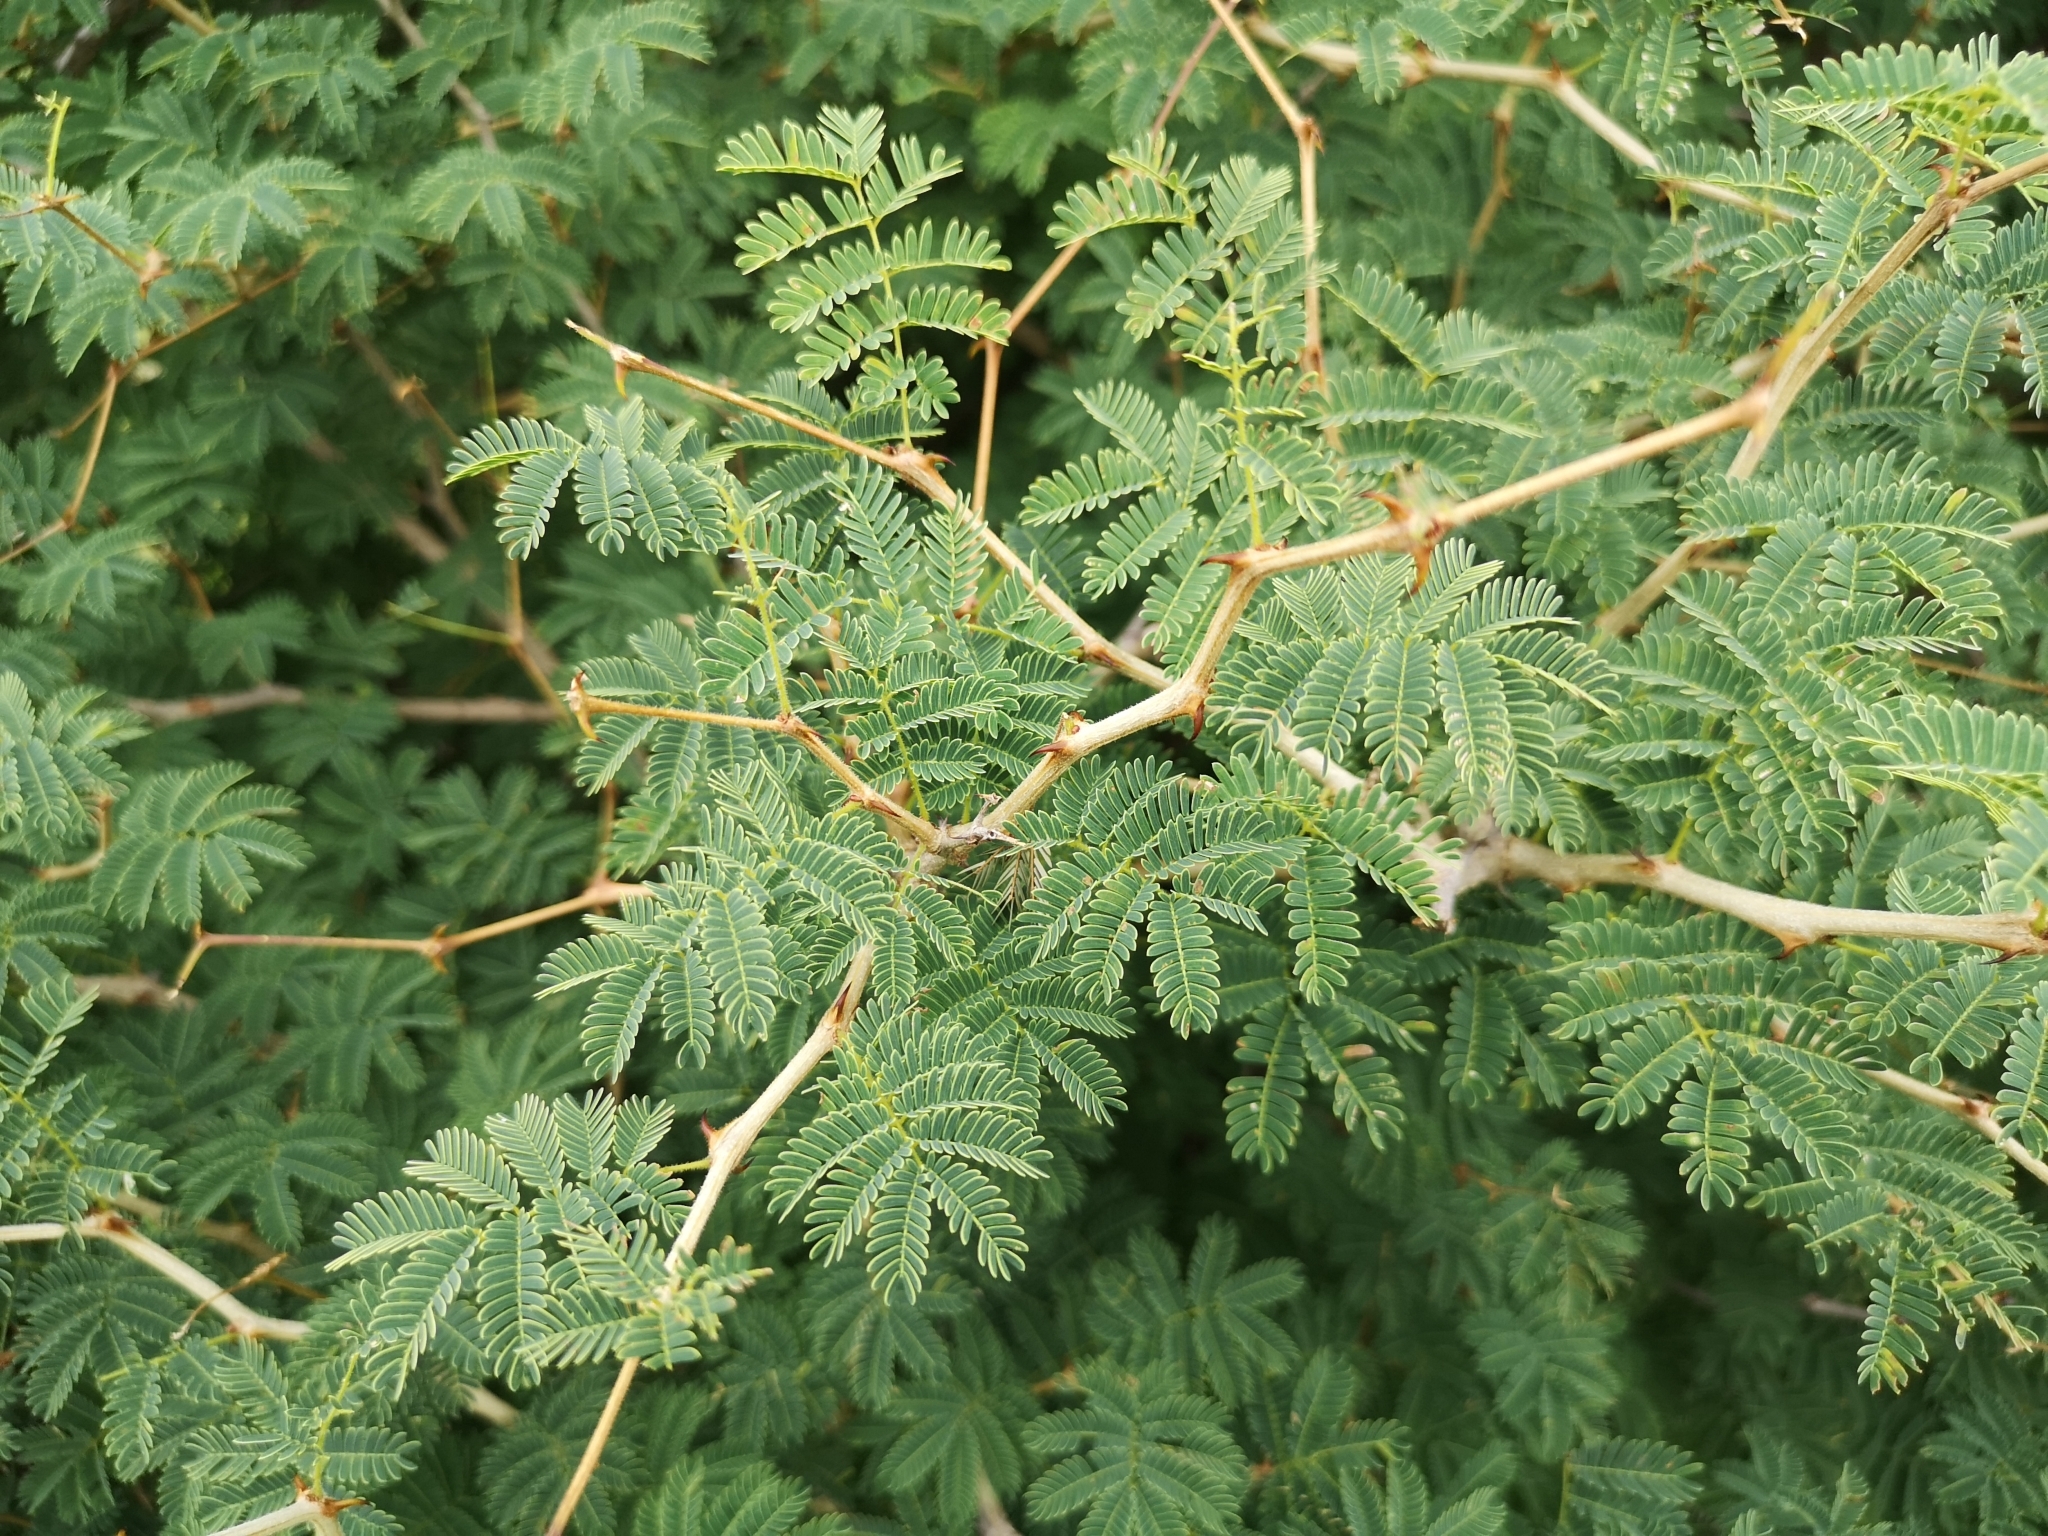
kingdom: Plantae
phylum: Tracheophyta
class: Magnoliopsida
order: Fabales
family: Fabaceae
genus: Senegalia
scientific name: Senegalia erubescens
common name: Bluethorn
